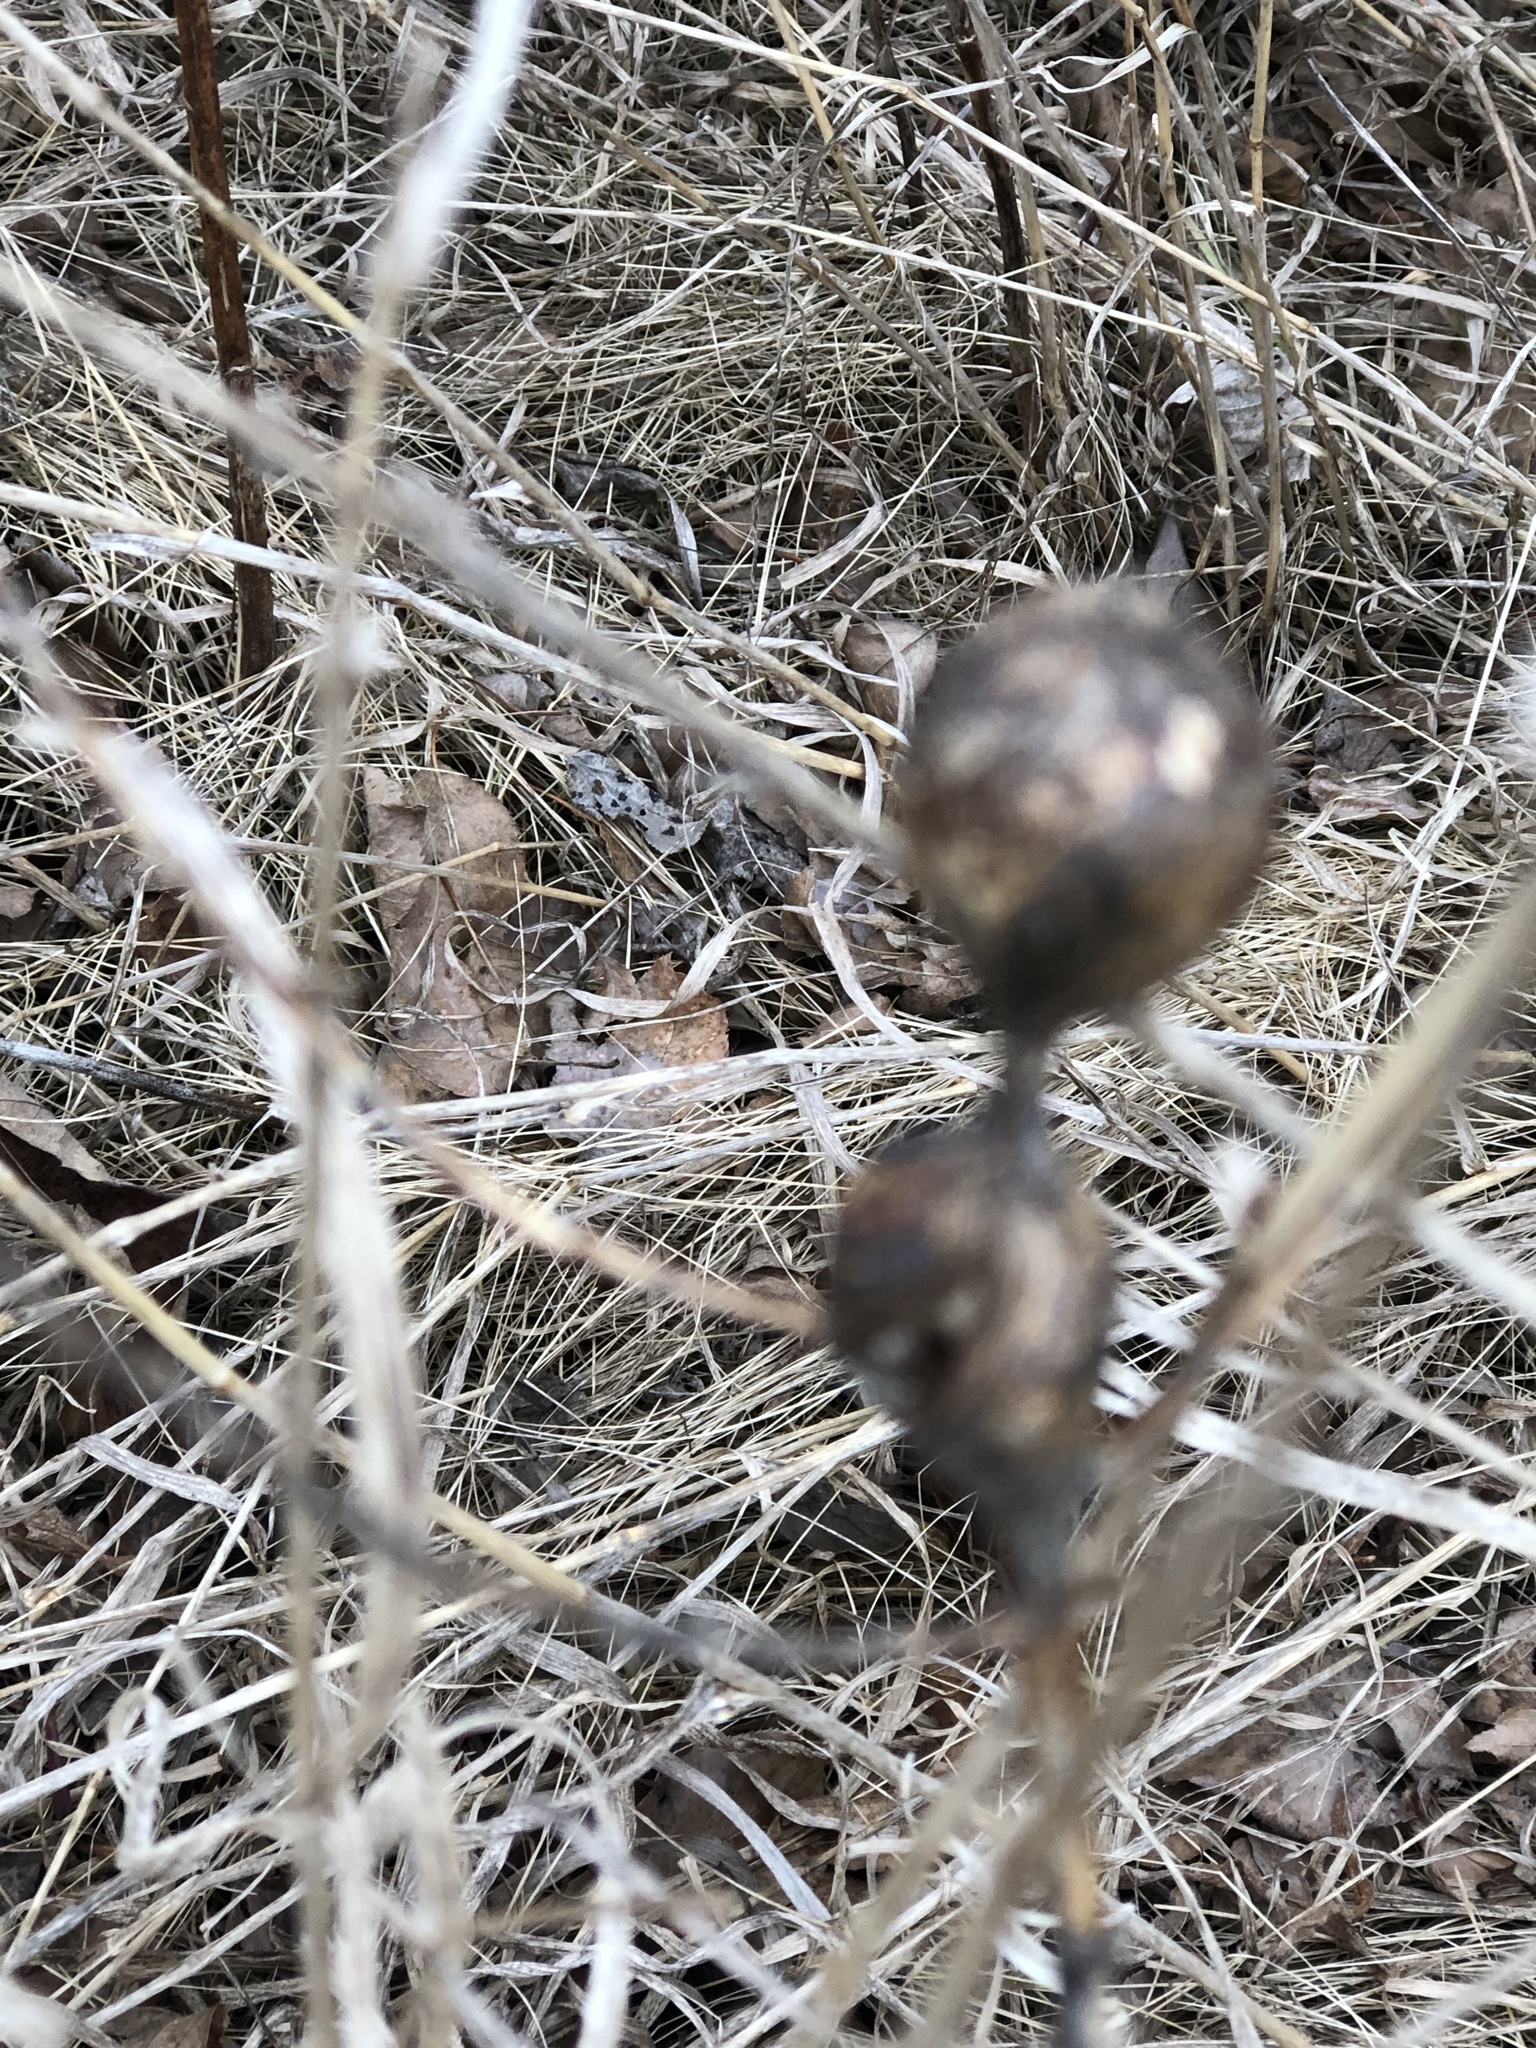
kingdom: Animalia
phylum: Arthropoda
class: Insecta
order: Diptera
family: Tephritidae
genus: Eurosta
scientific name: Eurosta solidaginis
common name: Goldenrod gall fly
